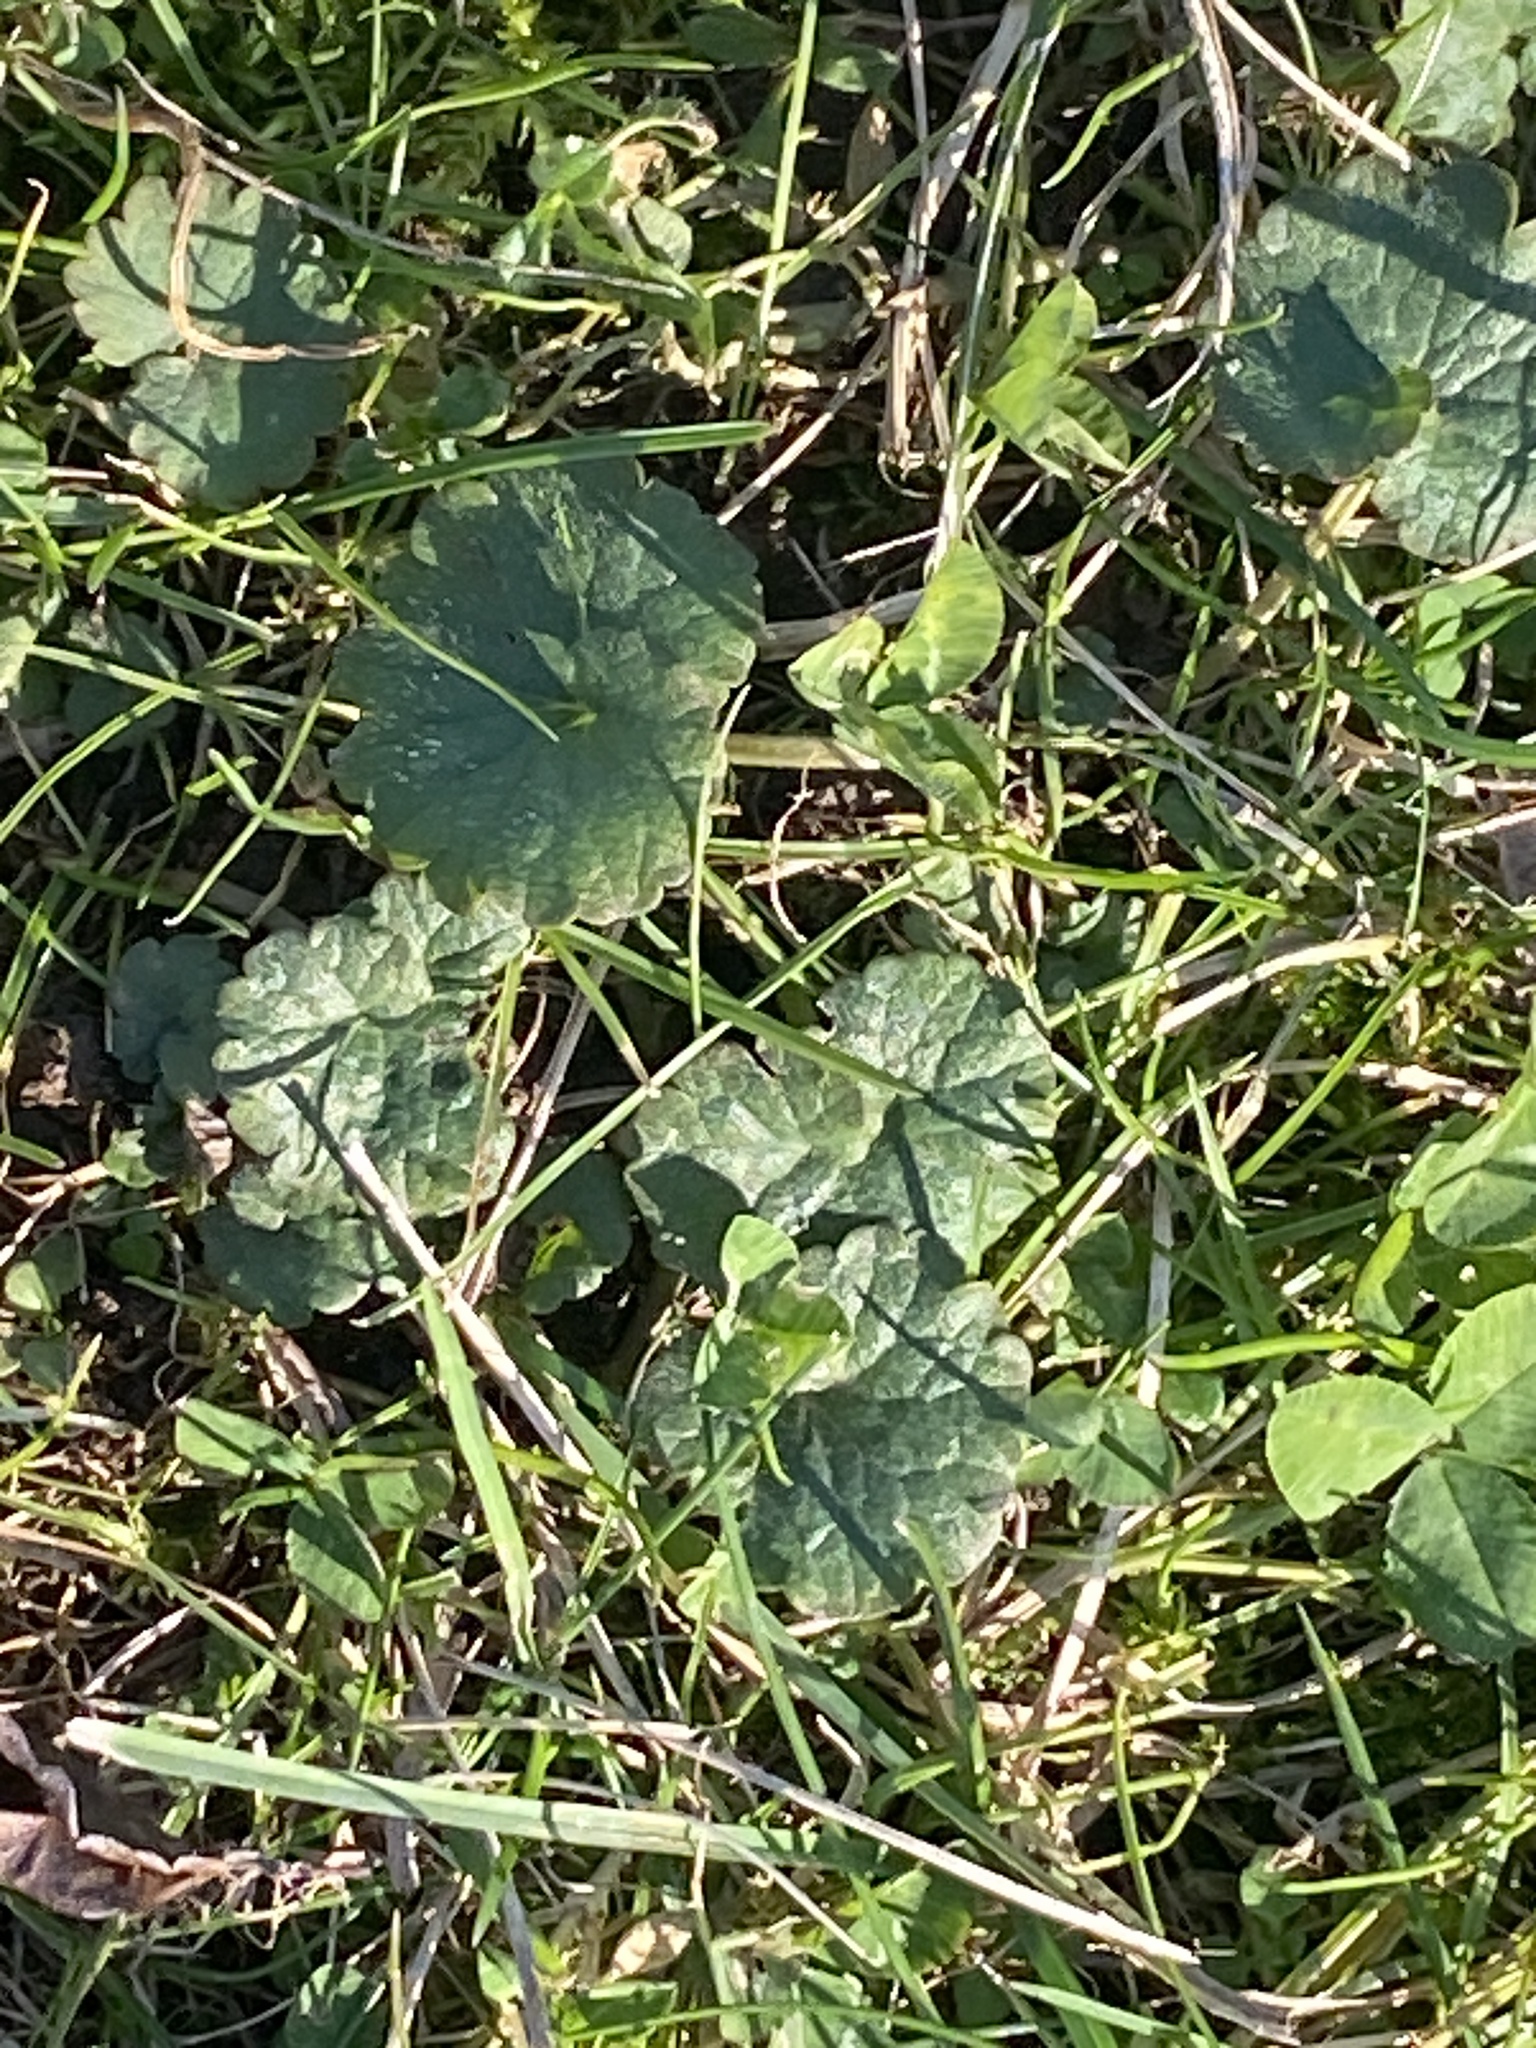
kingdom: Plantae
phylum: Tracheophyta
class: Magnoliopsida
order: Lamiales
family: Lamiaceae
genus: Glechoma
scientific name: Glechoma hederacea
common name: Ground ivy
